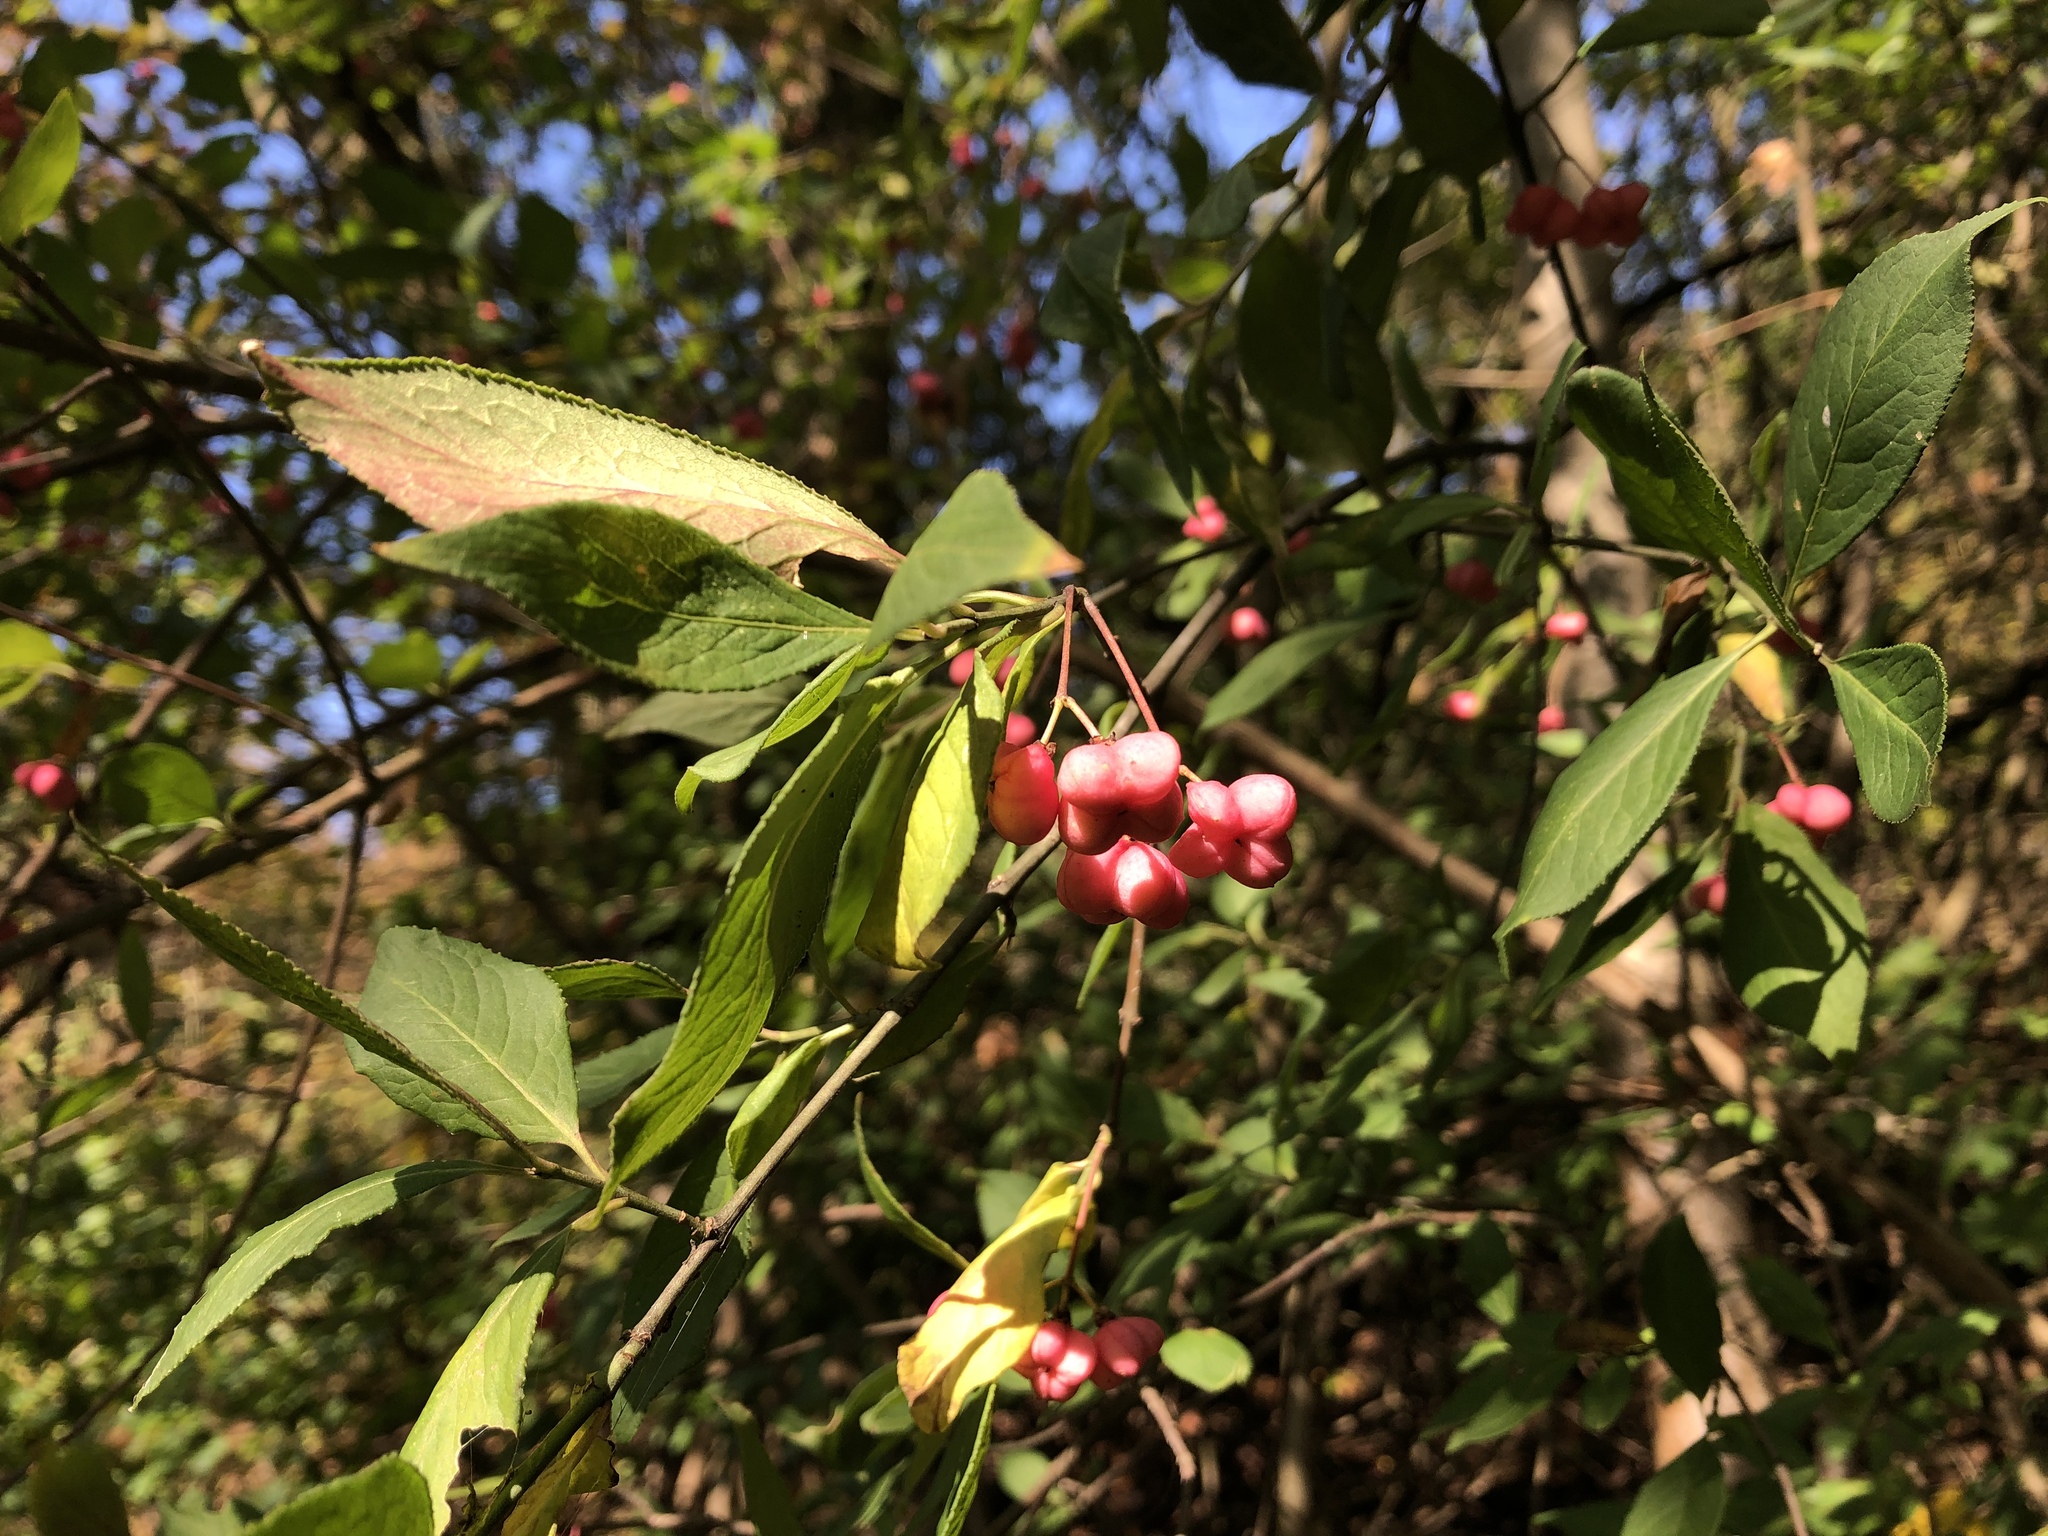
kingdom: Plantae
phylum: Tracheophyta
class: Magnoliopsida
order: Celastrales
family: Celastraceae
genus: Euonymus
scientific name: Euonymus europaeus
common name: Spindle
